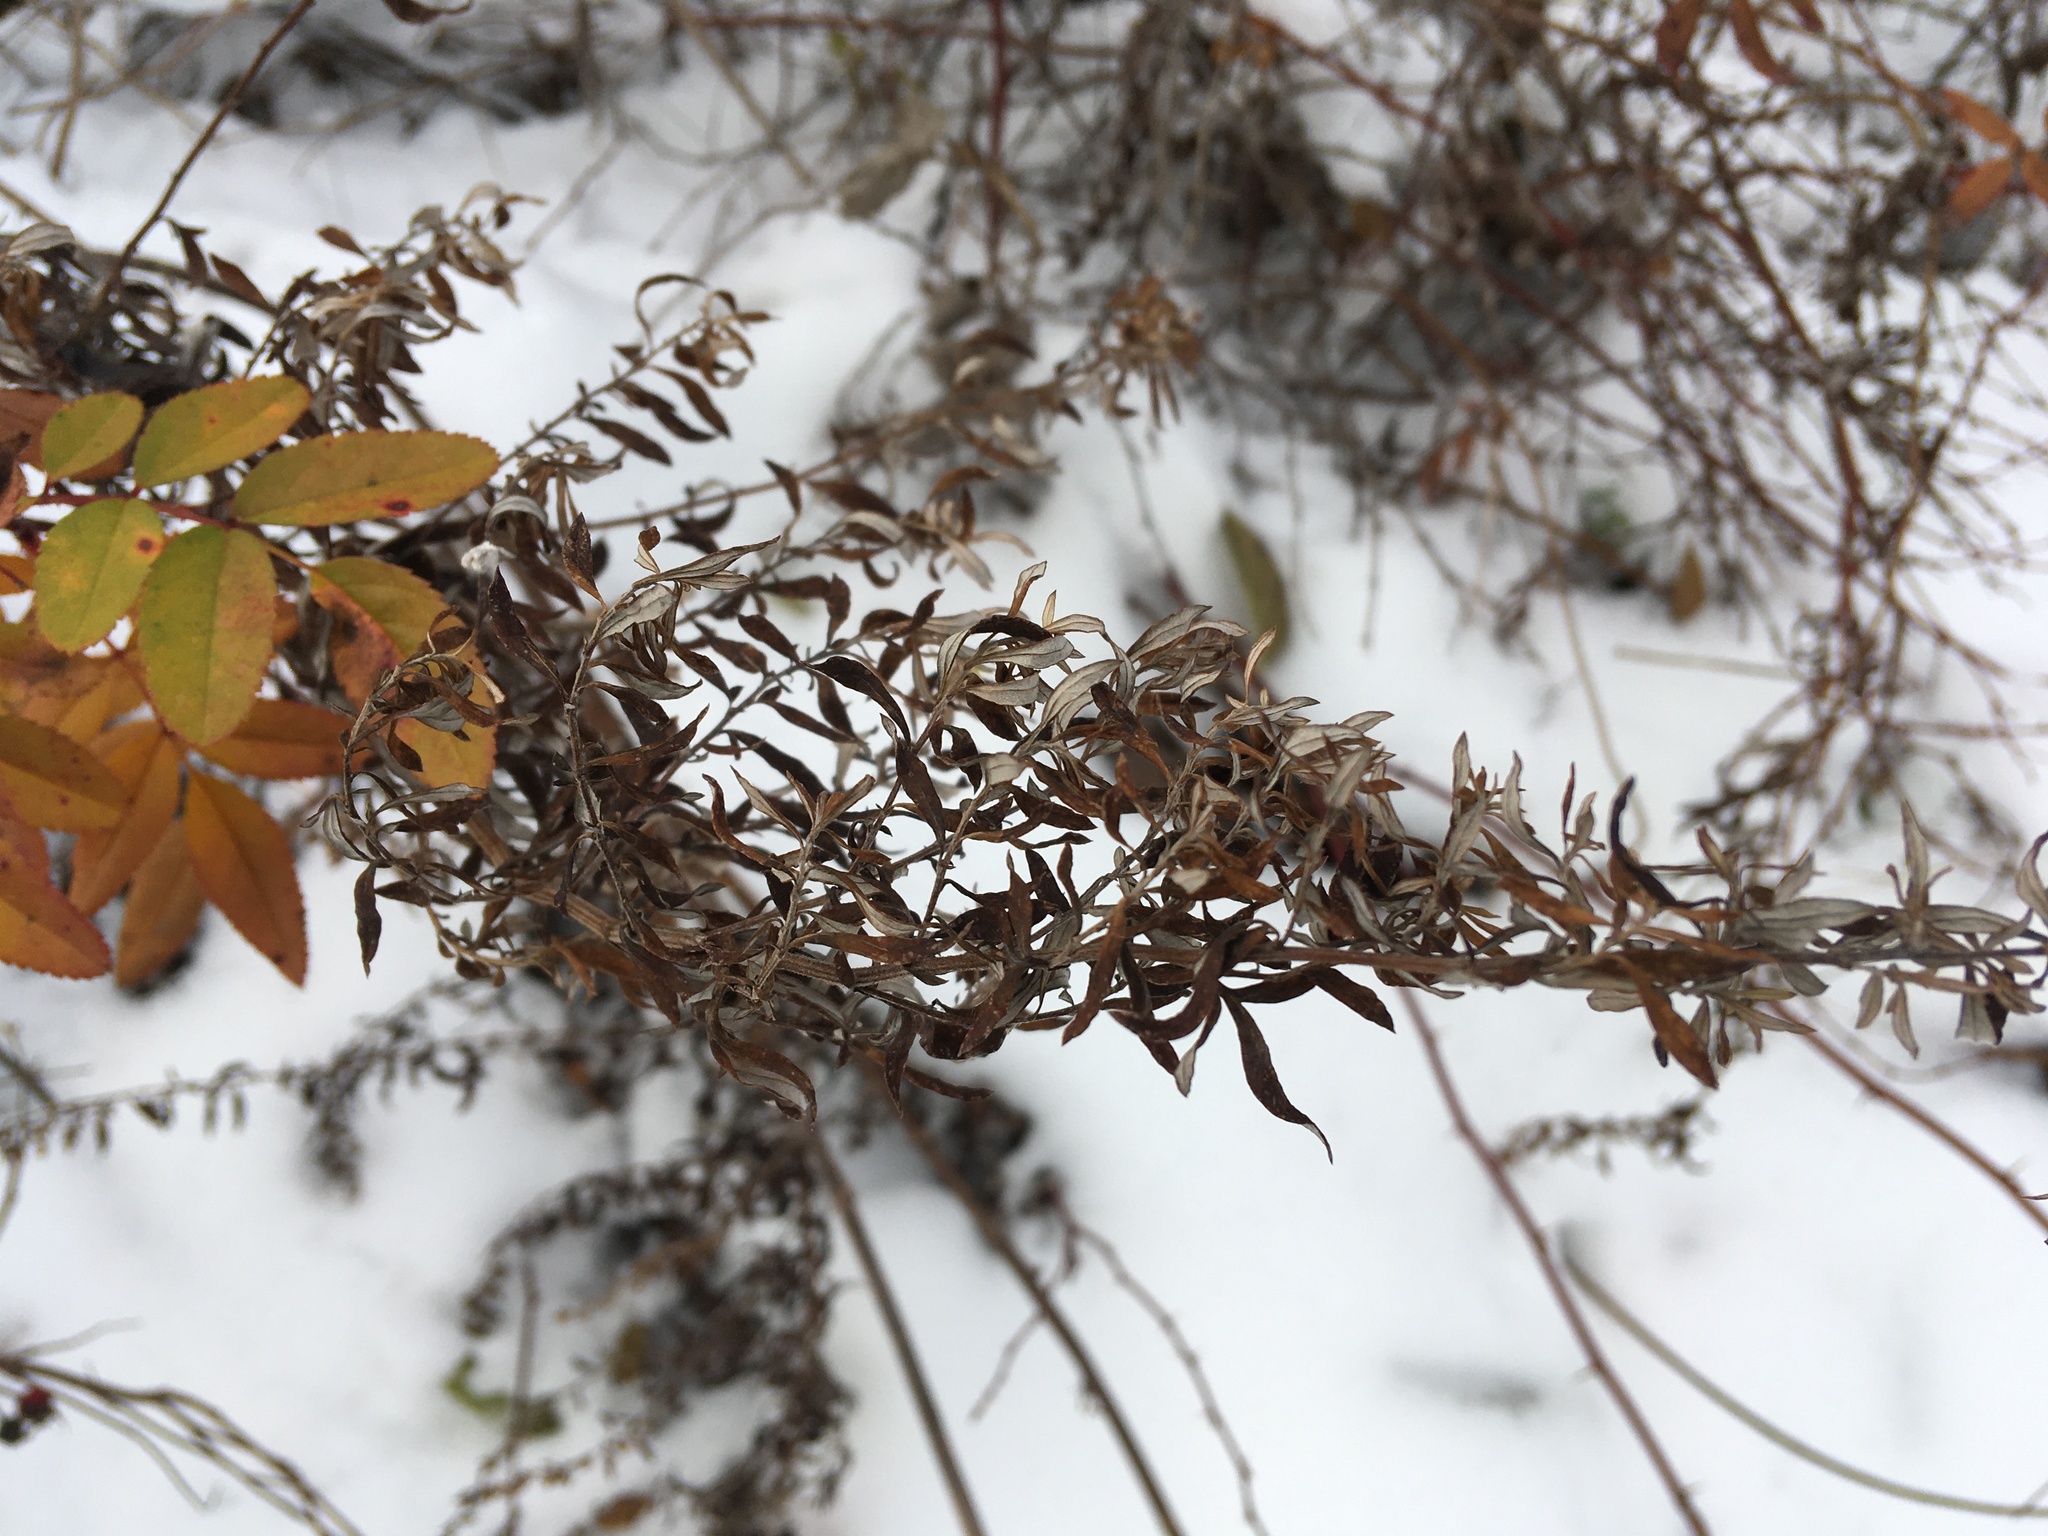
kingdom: Plantae
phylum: Tracheophyta
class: Magnoliopsida
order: Asterales
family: Asteraceae
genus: Artemisia
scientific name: Artemisia vulgaris
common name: Mugwort
